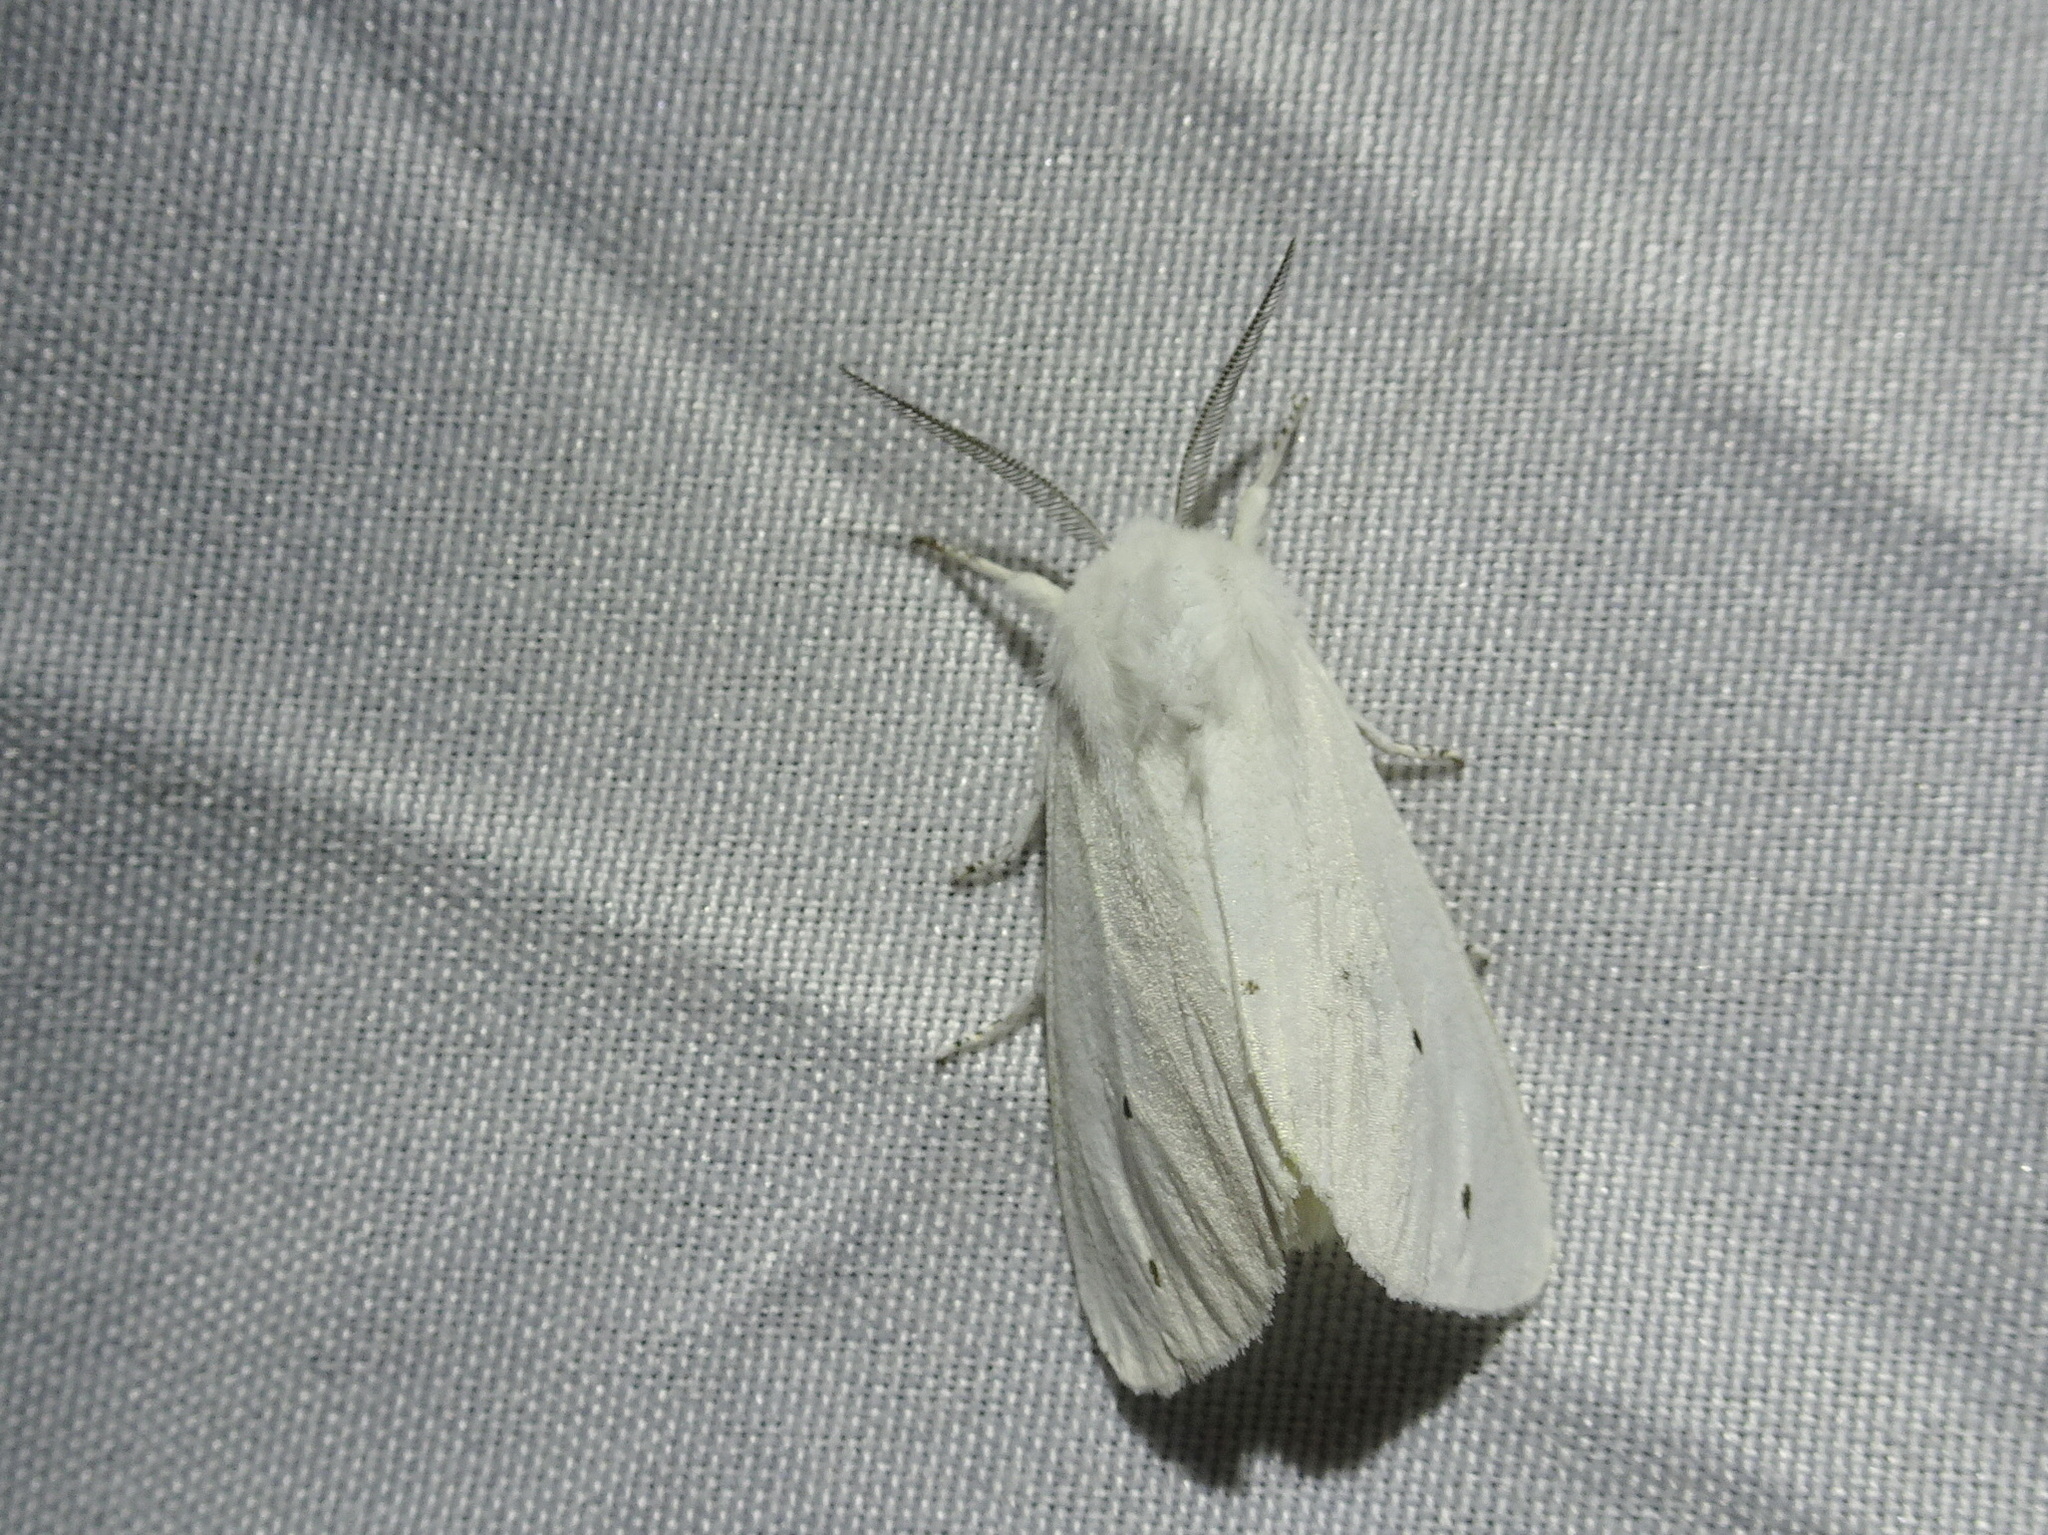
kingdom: Animalia
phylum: Arthropoda
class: Insecta
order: Lepidoptera
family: Erebidae
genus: Spilosoma
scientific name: Spilosoma virginica
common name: Virginia tiger moth
